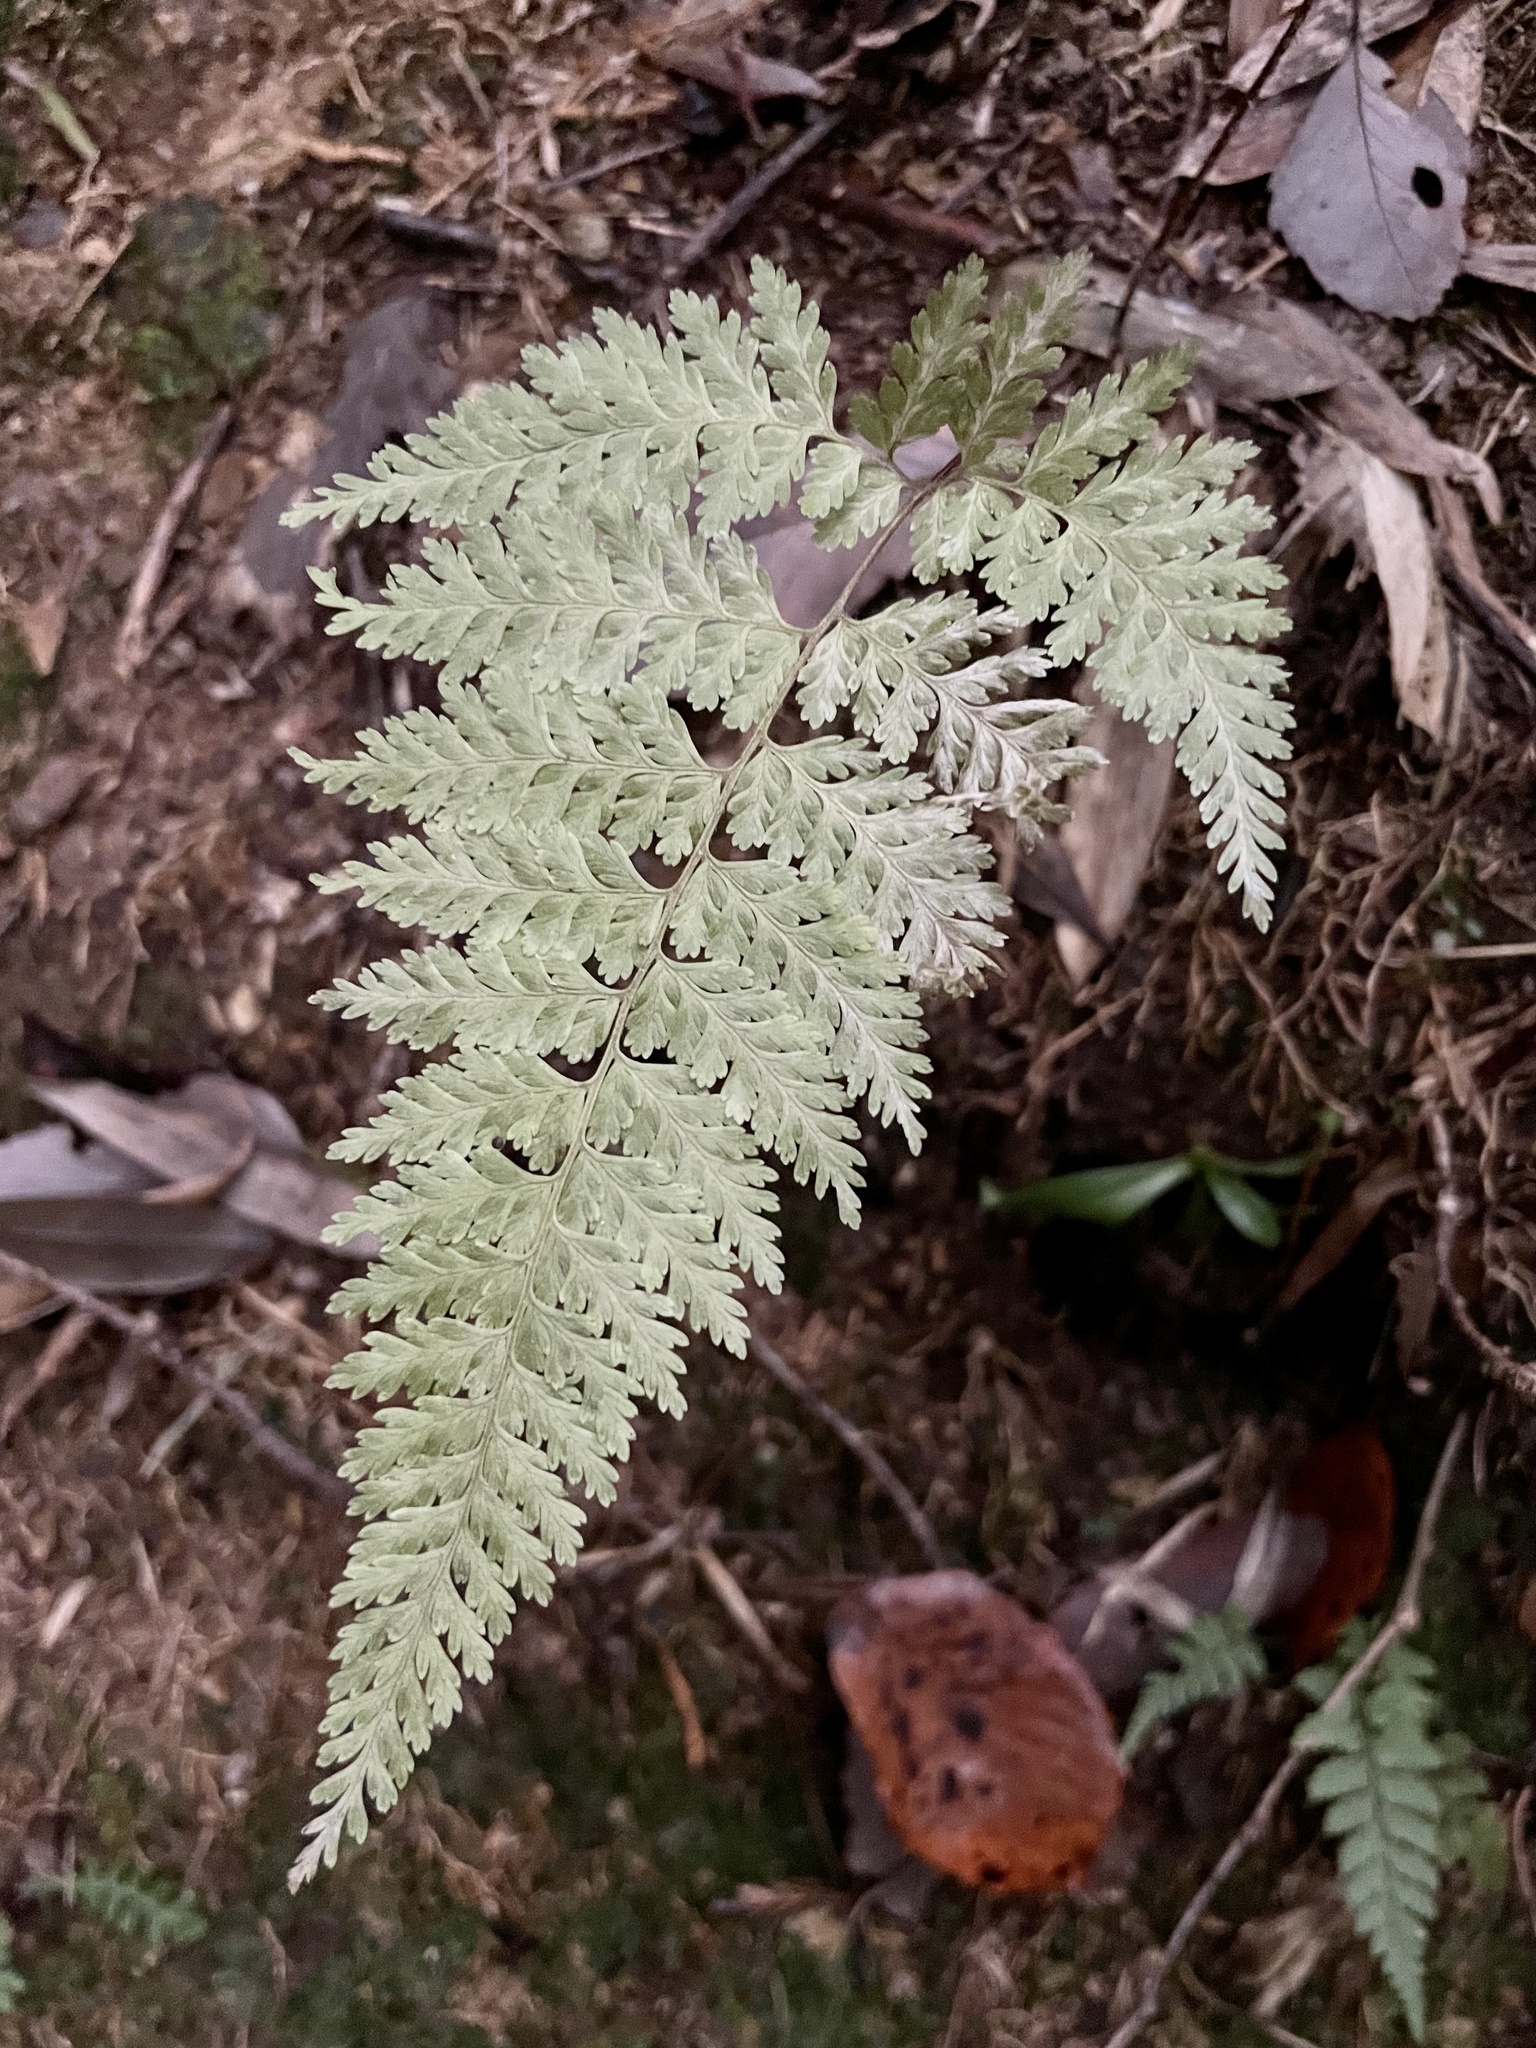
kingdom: Plantae
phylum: Tracheophyta
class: Polypodiopsida
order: Polypodiales
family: Dennstaedtiaceae
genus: Sitobolium
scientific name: Sitobolium zeylanicum
